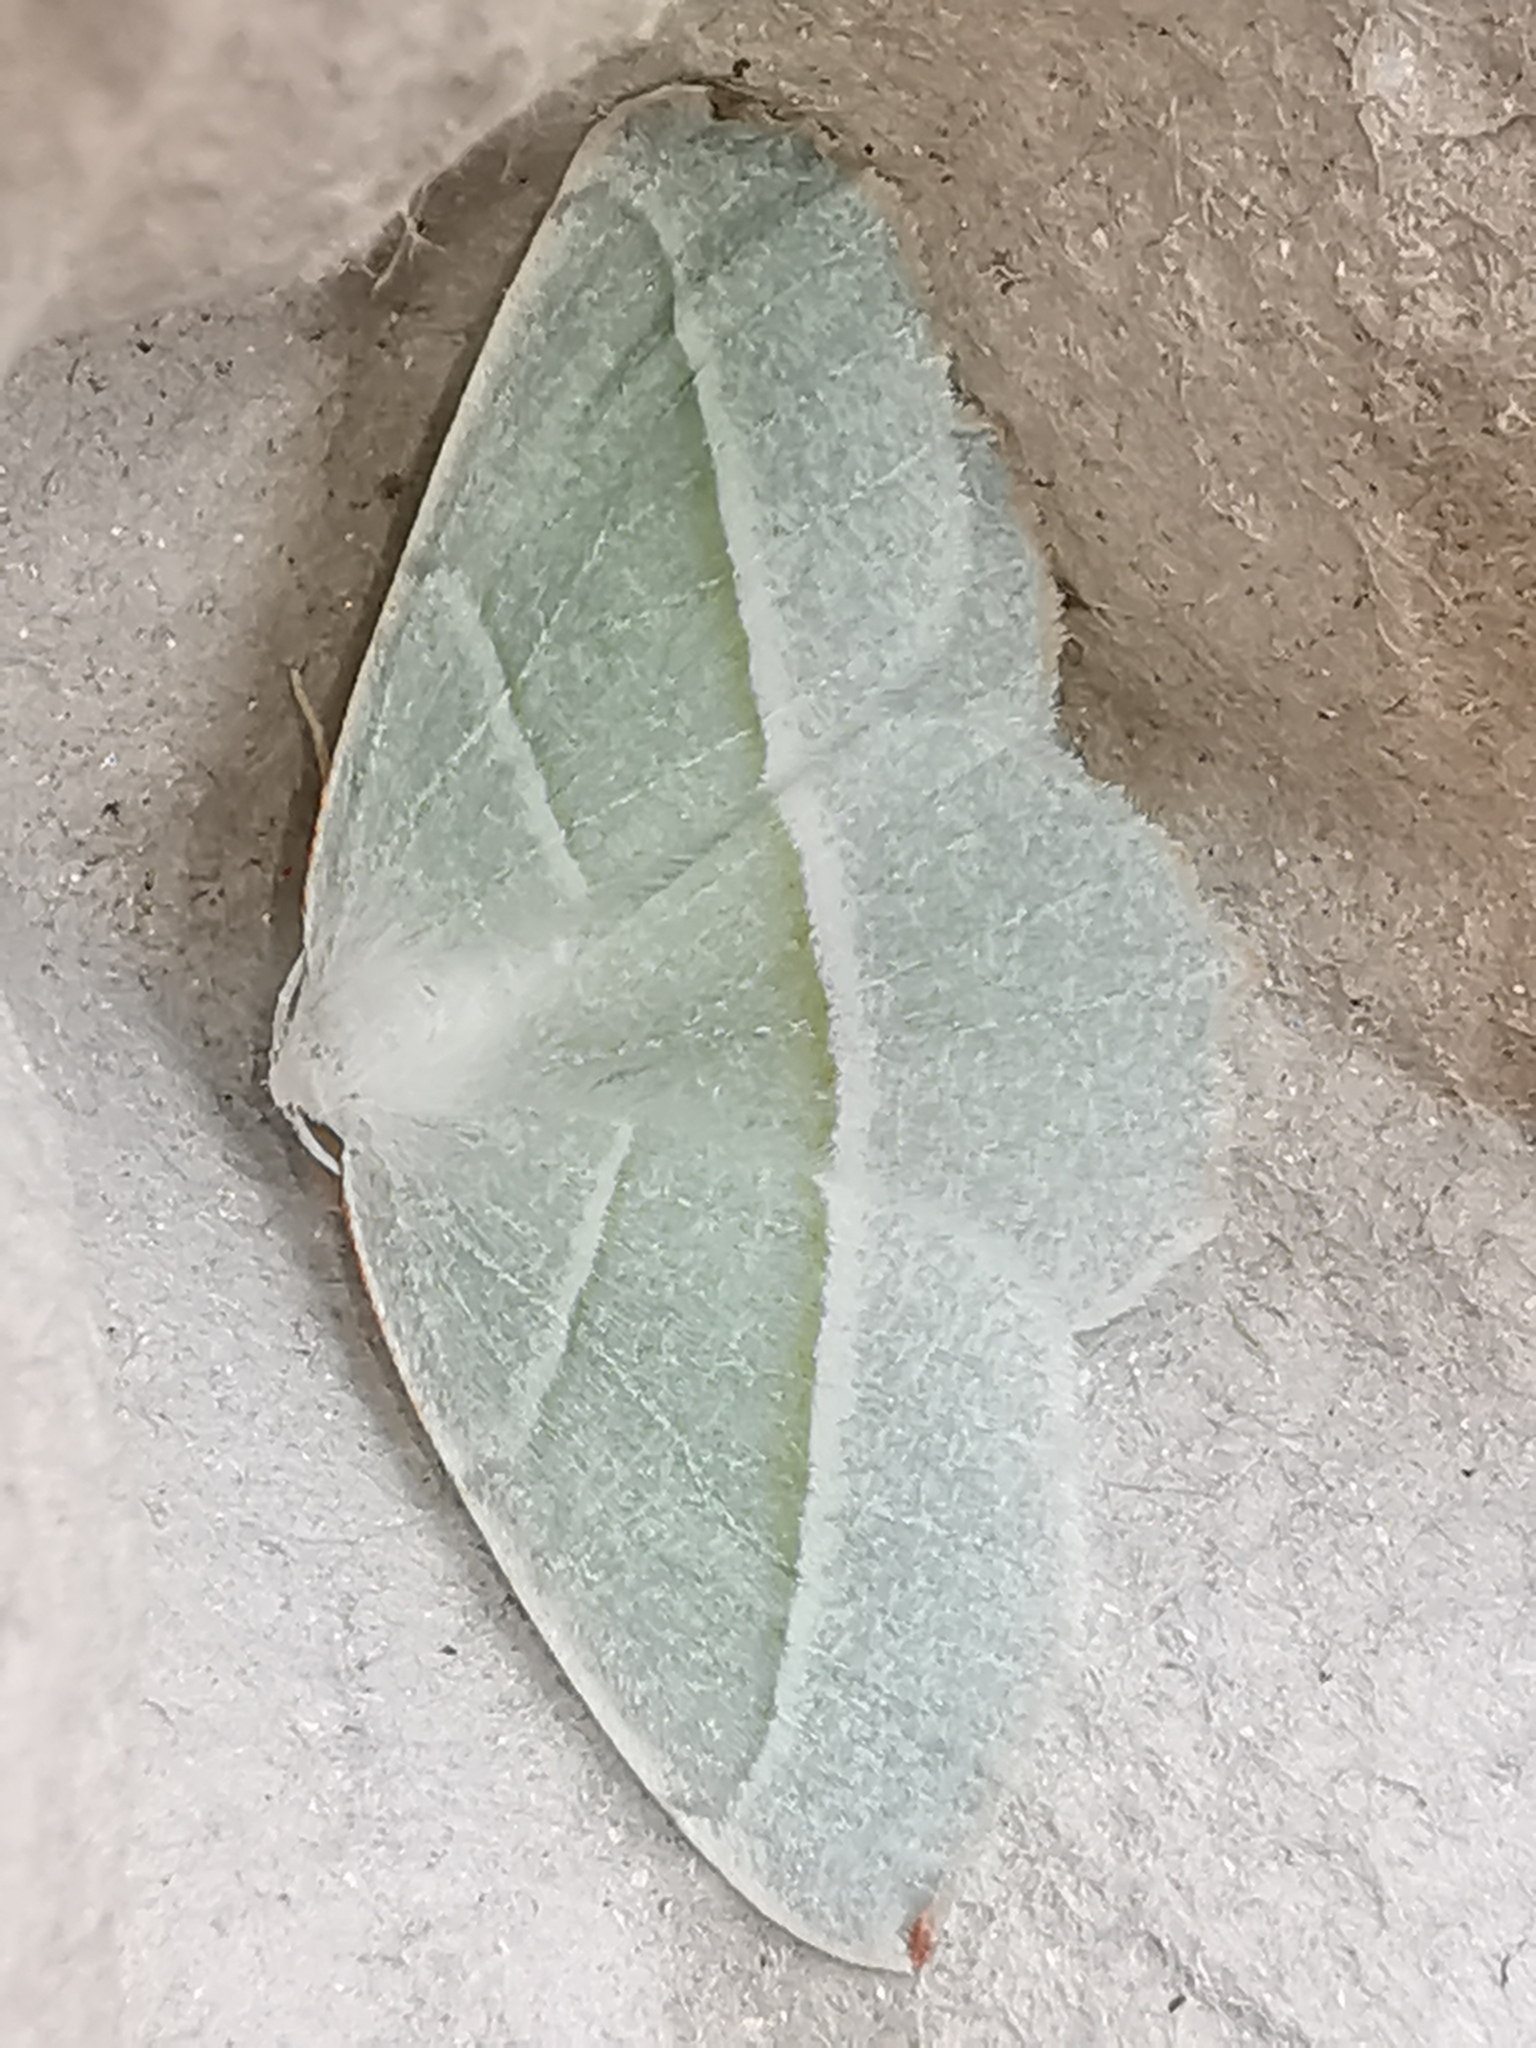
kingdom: Animalia
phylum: Arthropoda
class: Insecta
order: Lepidoptera
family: Geometridae
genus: Campaea
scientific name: Campaea margaritaria
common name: Light emerald
